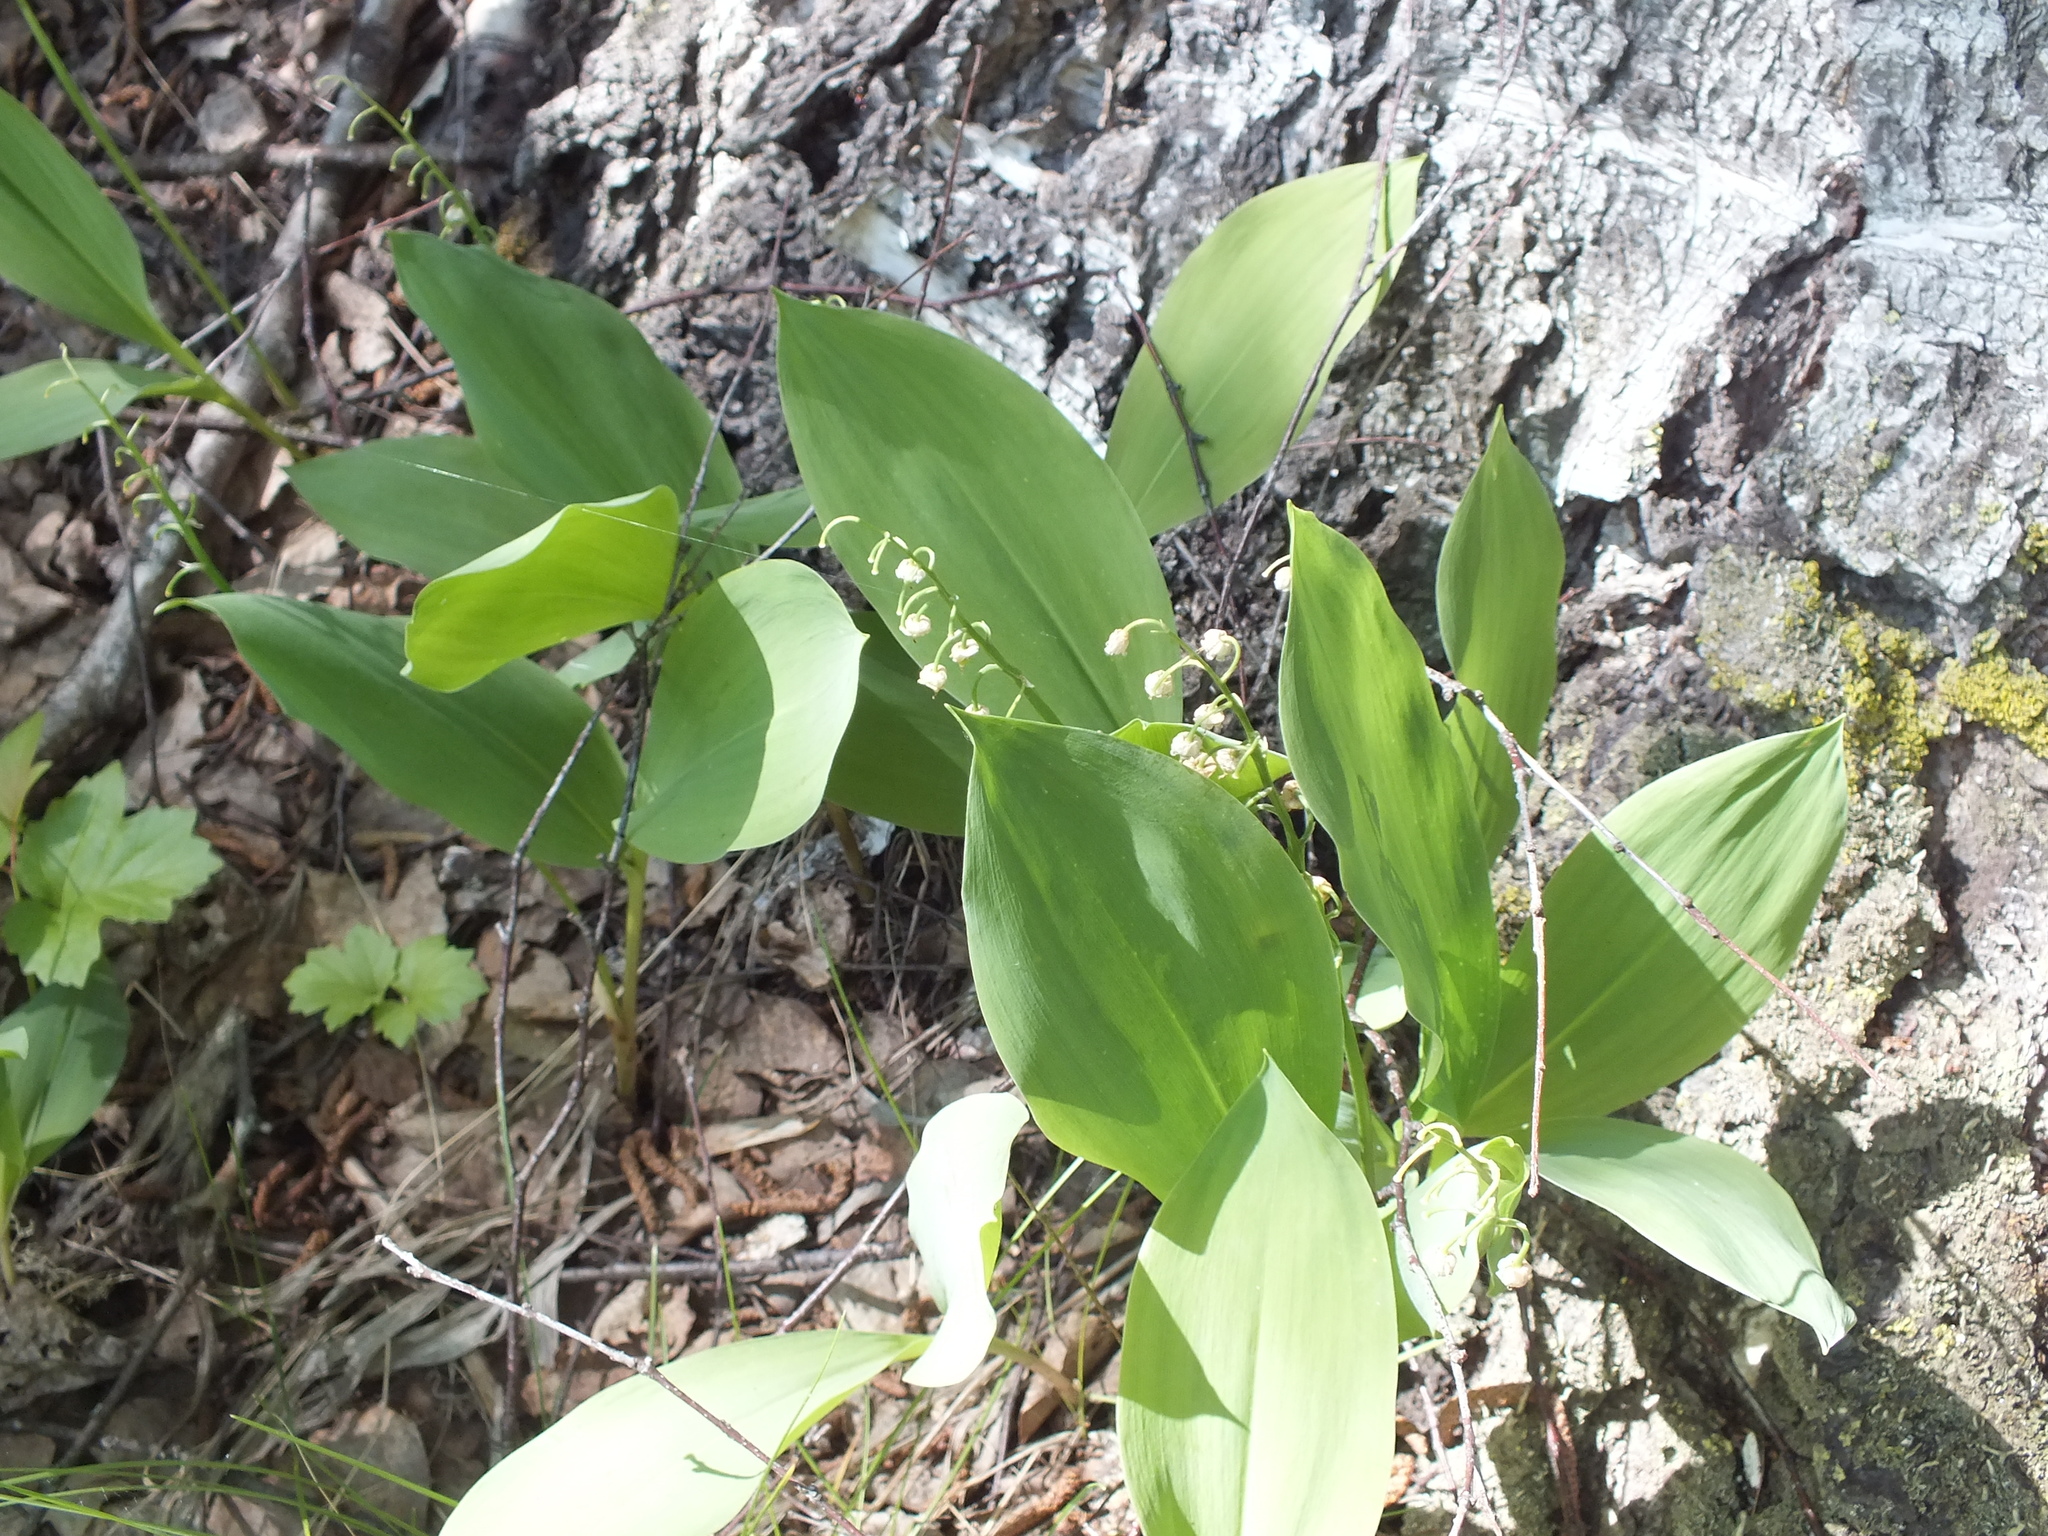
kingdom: Plantae
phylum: Tracheophyta
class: Liliopsida
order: Asparagales
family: Asparagaceae
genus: Convallaria
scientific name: Convallaria majalis
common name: Lily-of-the-valley
